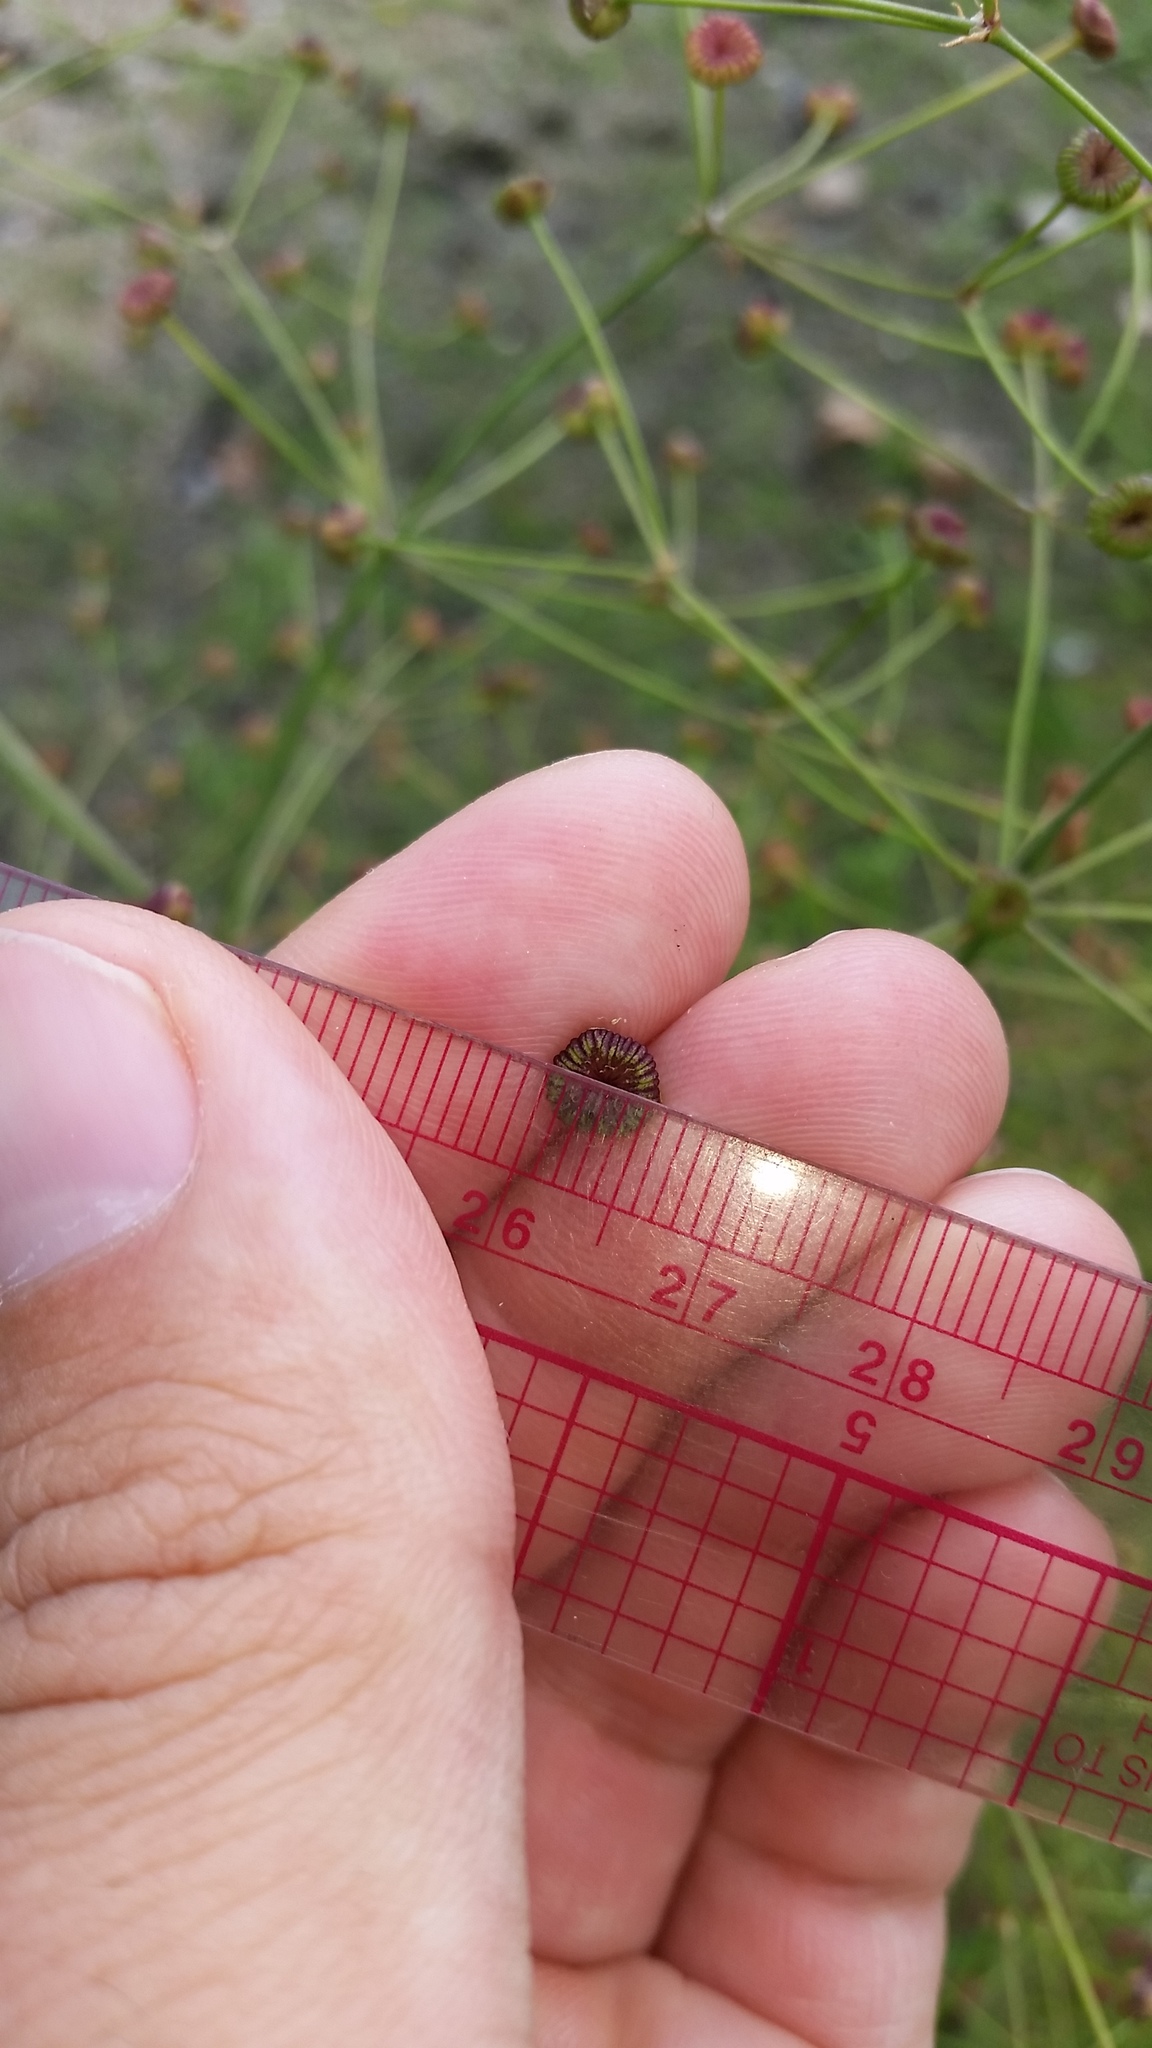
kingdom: Plantae
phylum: Tracheophyta
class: Liliopsida
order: Alismatales
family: Alismataceae
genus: Alisma
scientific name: Alisma triviale
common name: Northern water-plantain
